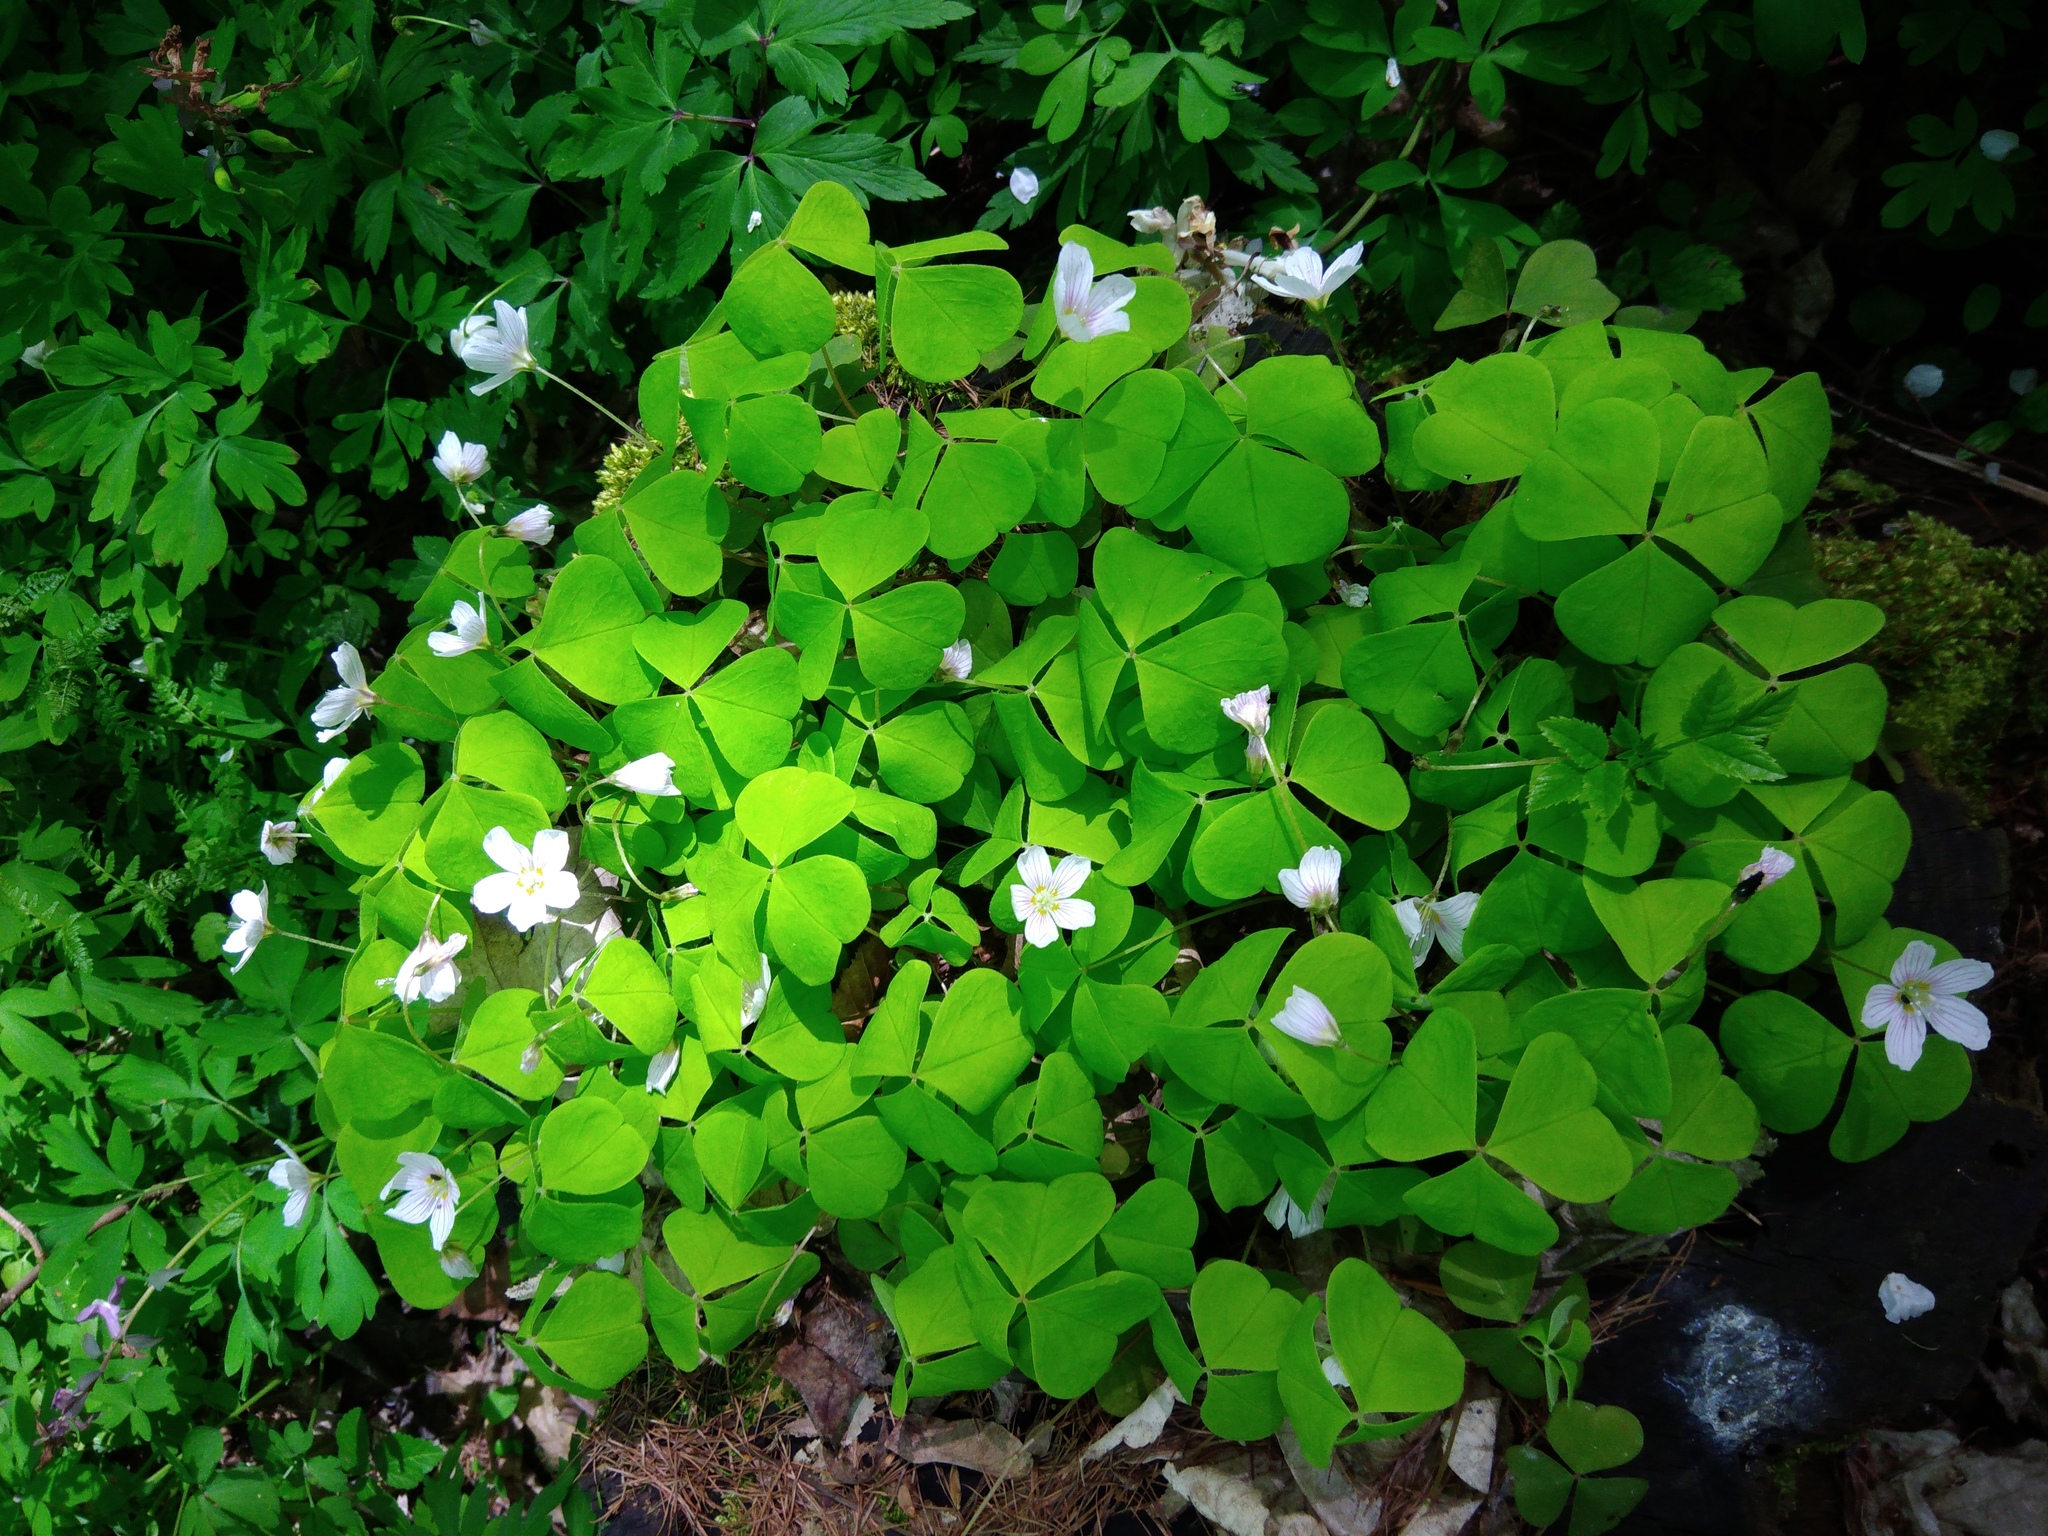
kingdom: Plantae
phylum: Tracheophyta
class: Magnoliopsida
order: Oxalidales
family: Oxalidaceae
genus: Oxalis
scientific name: Oxalis acetosella
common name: Wood-sorrel
